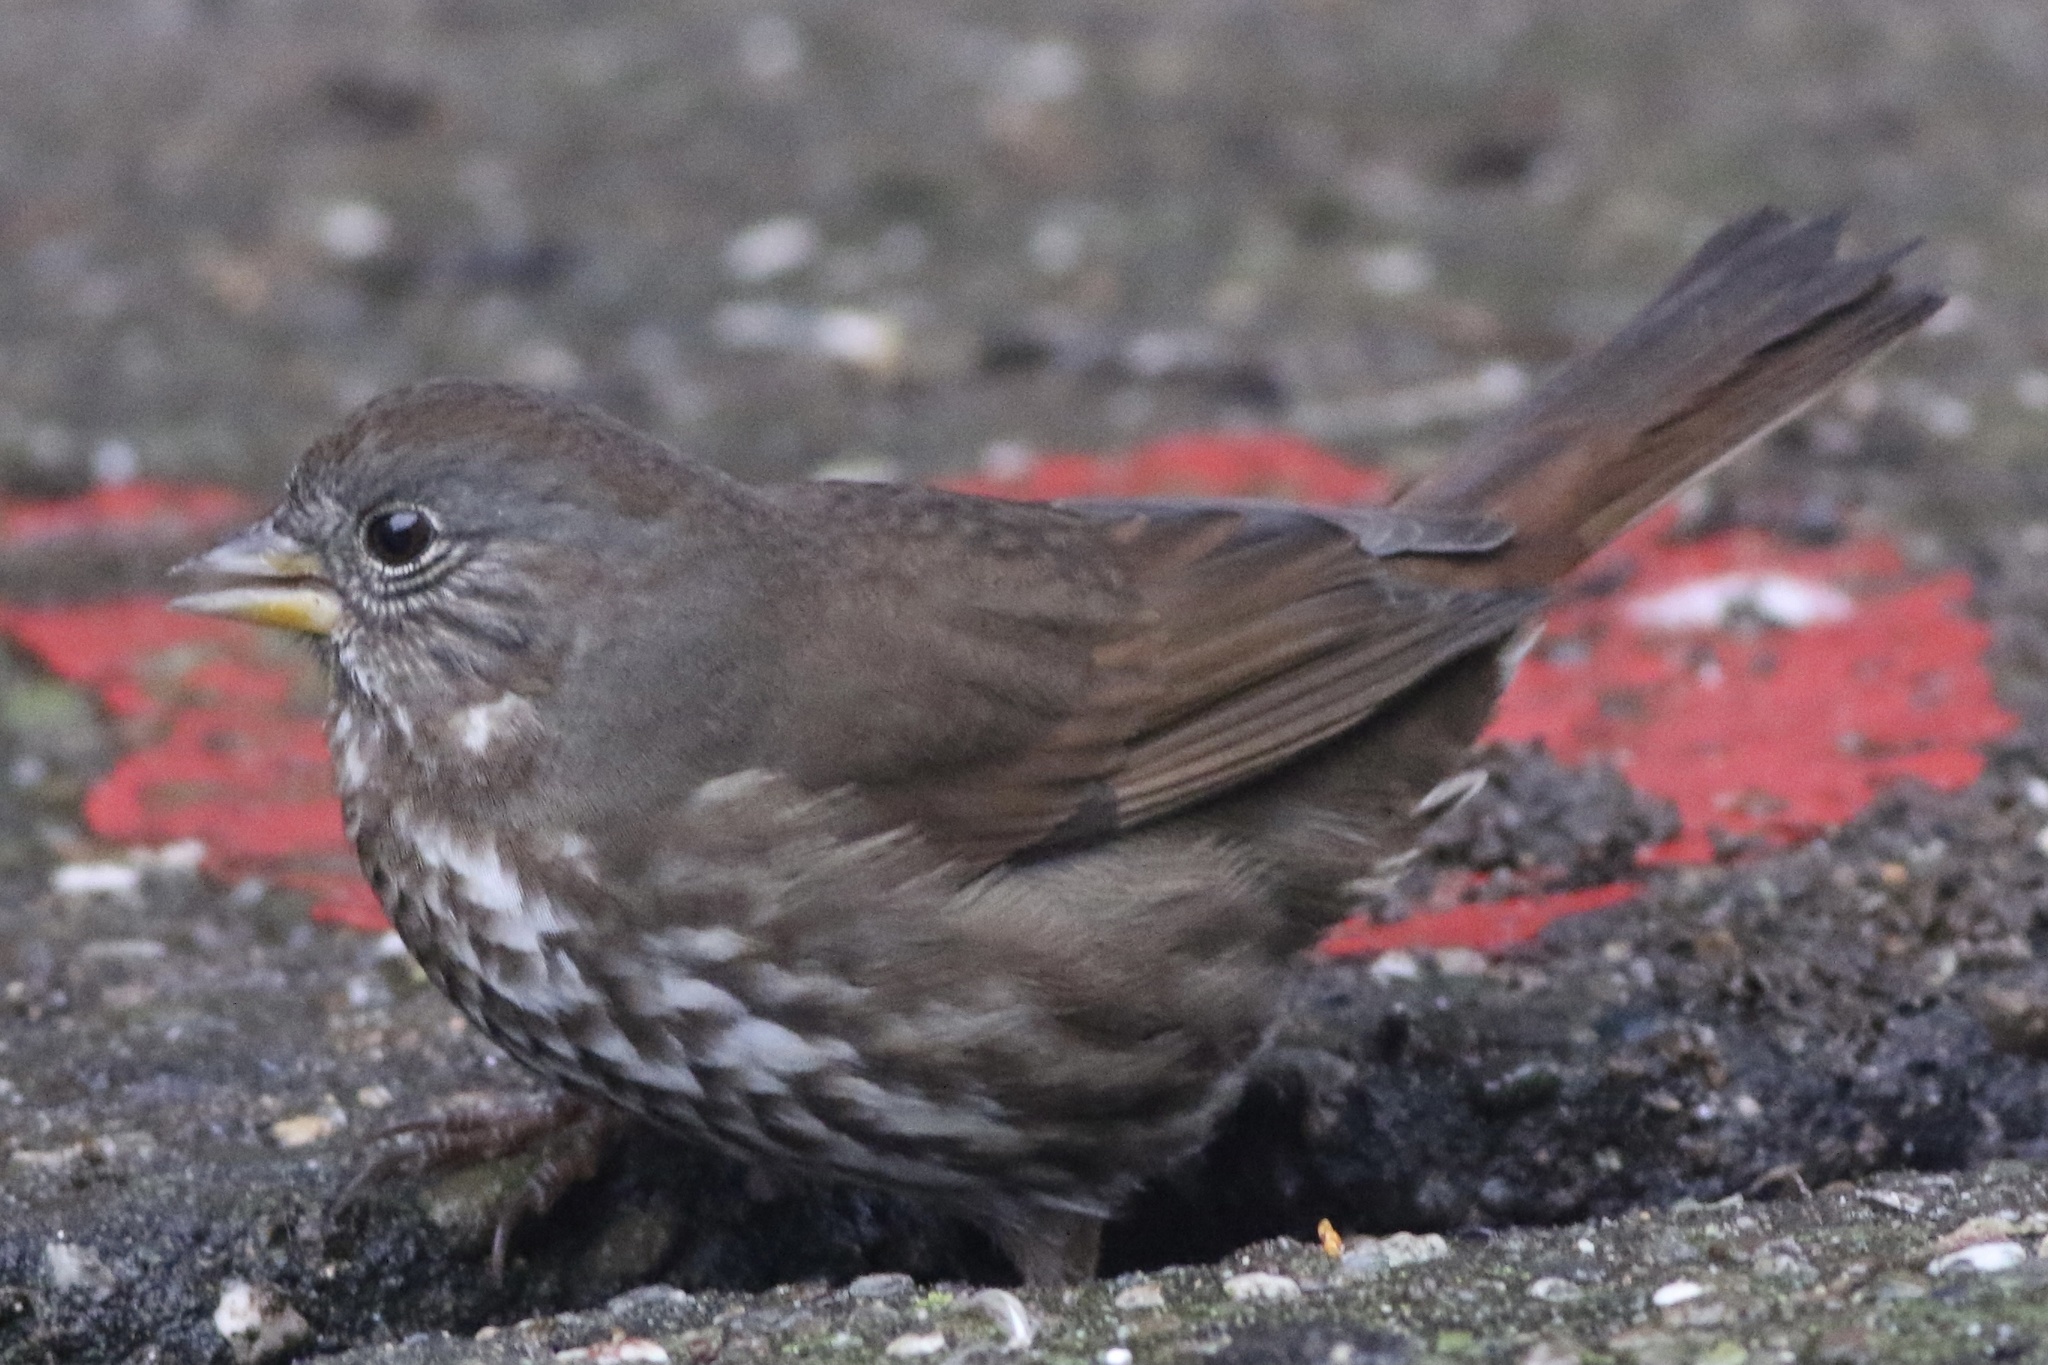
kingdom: Animalia
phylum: Chordata
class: Aves
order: Passeriformes
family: Passerellidae
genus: Passerella
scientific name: Passerella iliaca
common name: Fox sparrow
